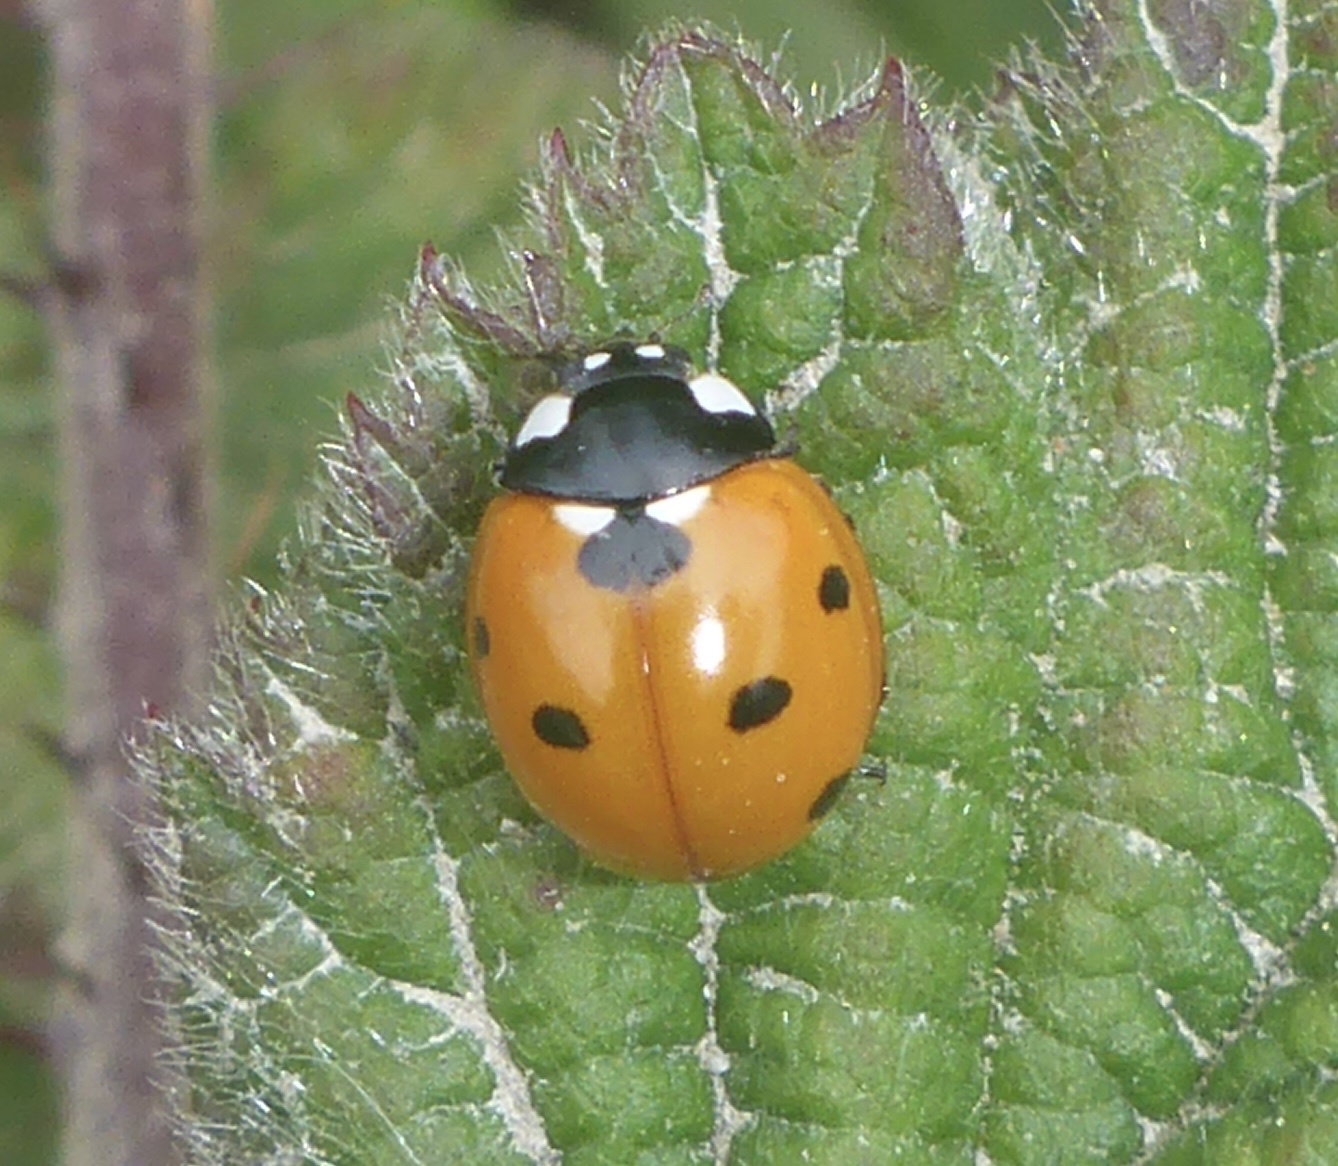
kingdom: Animalia
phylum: Arthropoda
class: Insecta
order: Coleoptera
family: Coccinellidae
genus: Coccinella
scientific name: Coccinella septempunctata
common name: Sevenspotted lady beetle
